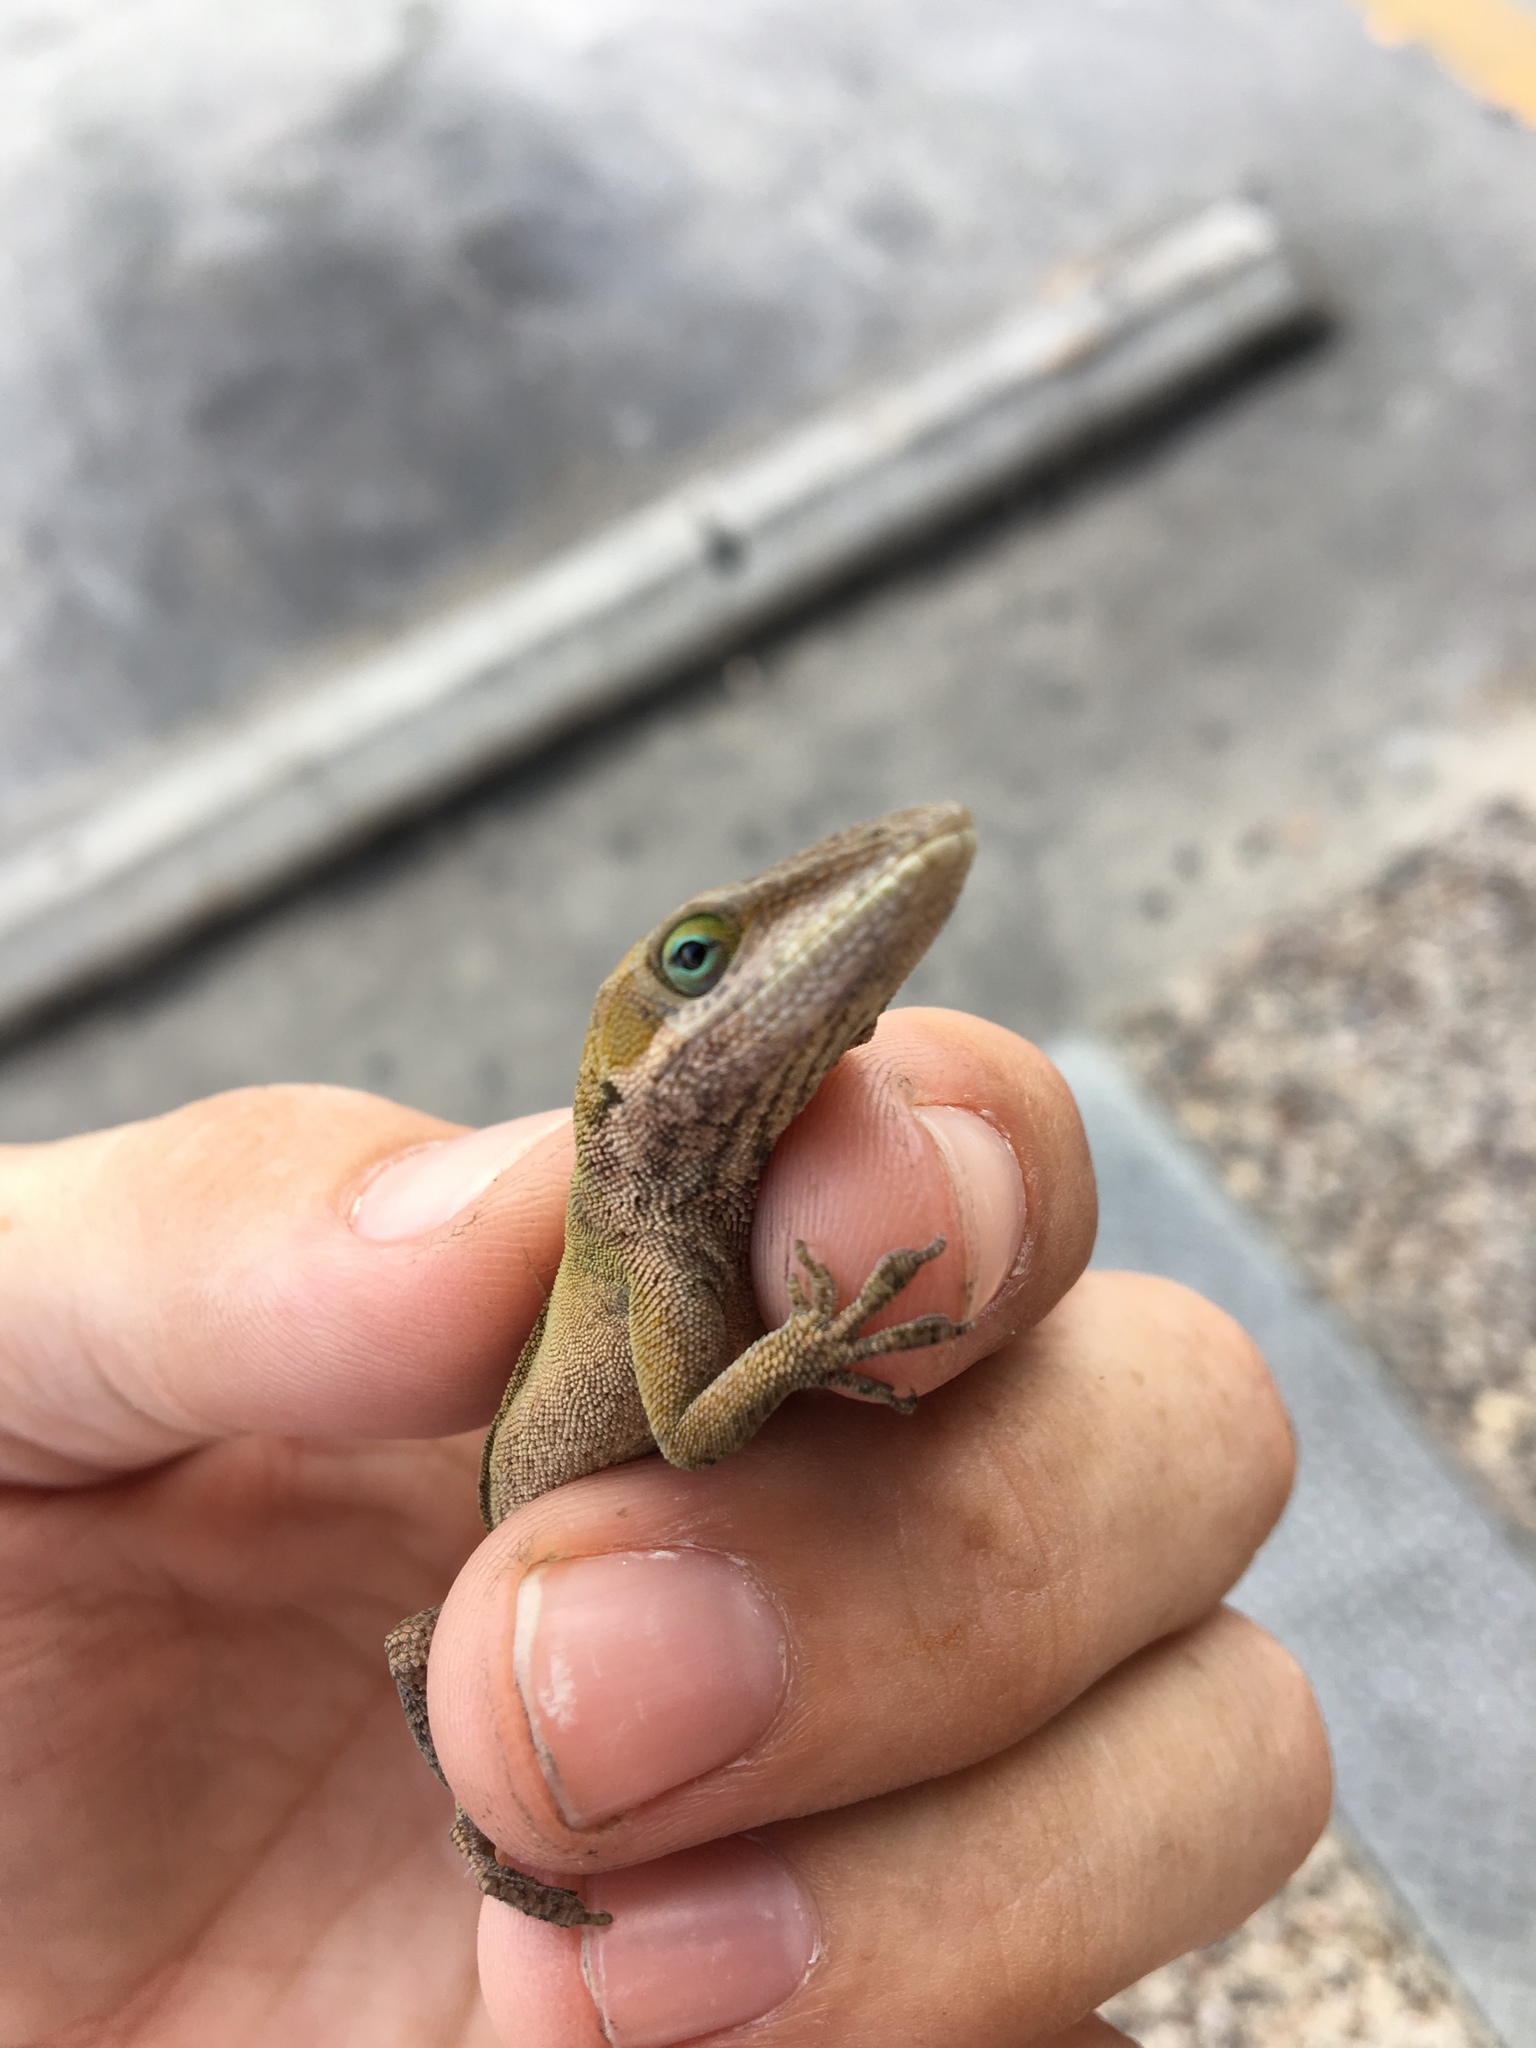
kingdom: Animalia
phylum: Chordata
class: Squamata
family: Dactyloidae
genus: Anolis
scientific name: Anolis carolinensis
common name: Green anole
